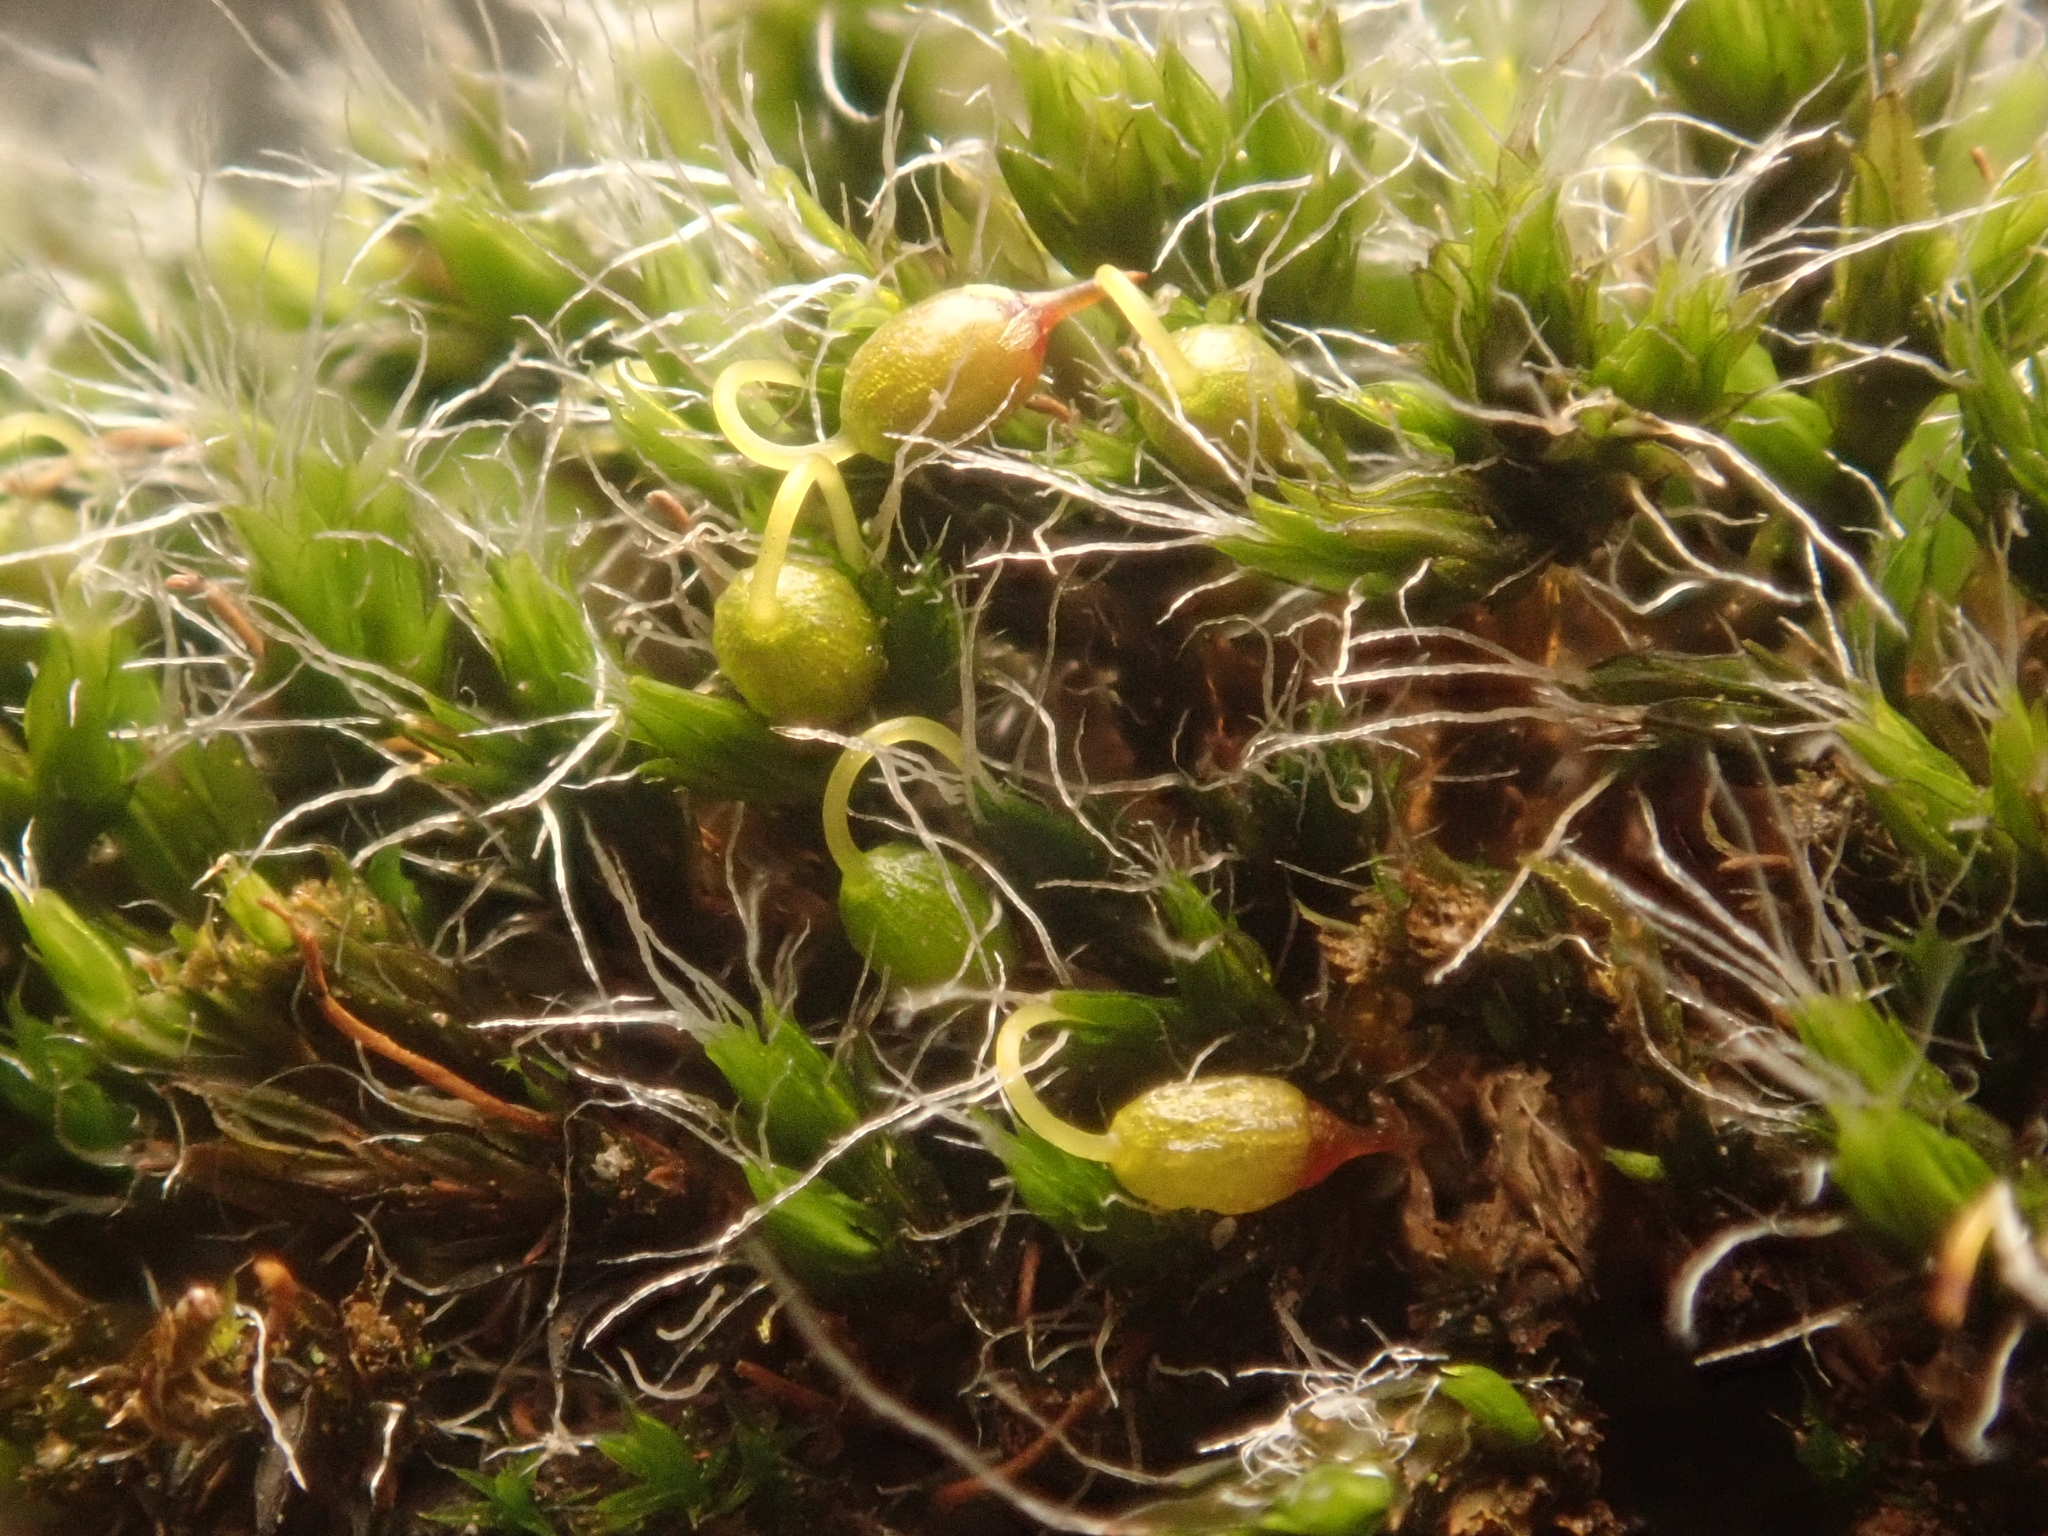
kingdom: Plantae
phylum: Bryophyta
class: Bryopsida
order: Grimmiales
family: Grimmiaceae
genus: Grimmia
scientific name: Grimmia pulvinata
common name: Grey-cushioned grimmia
